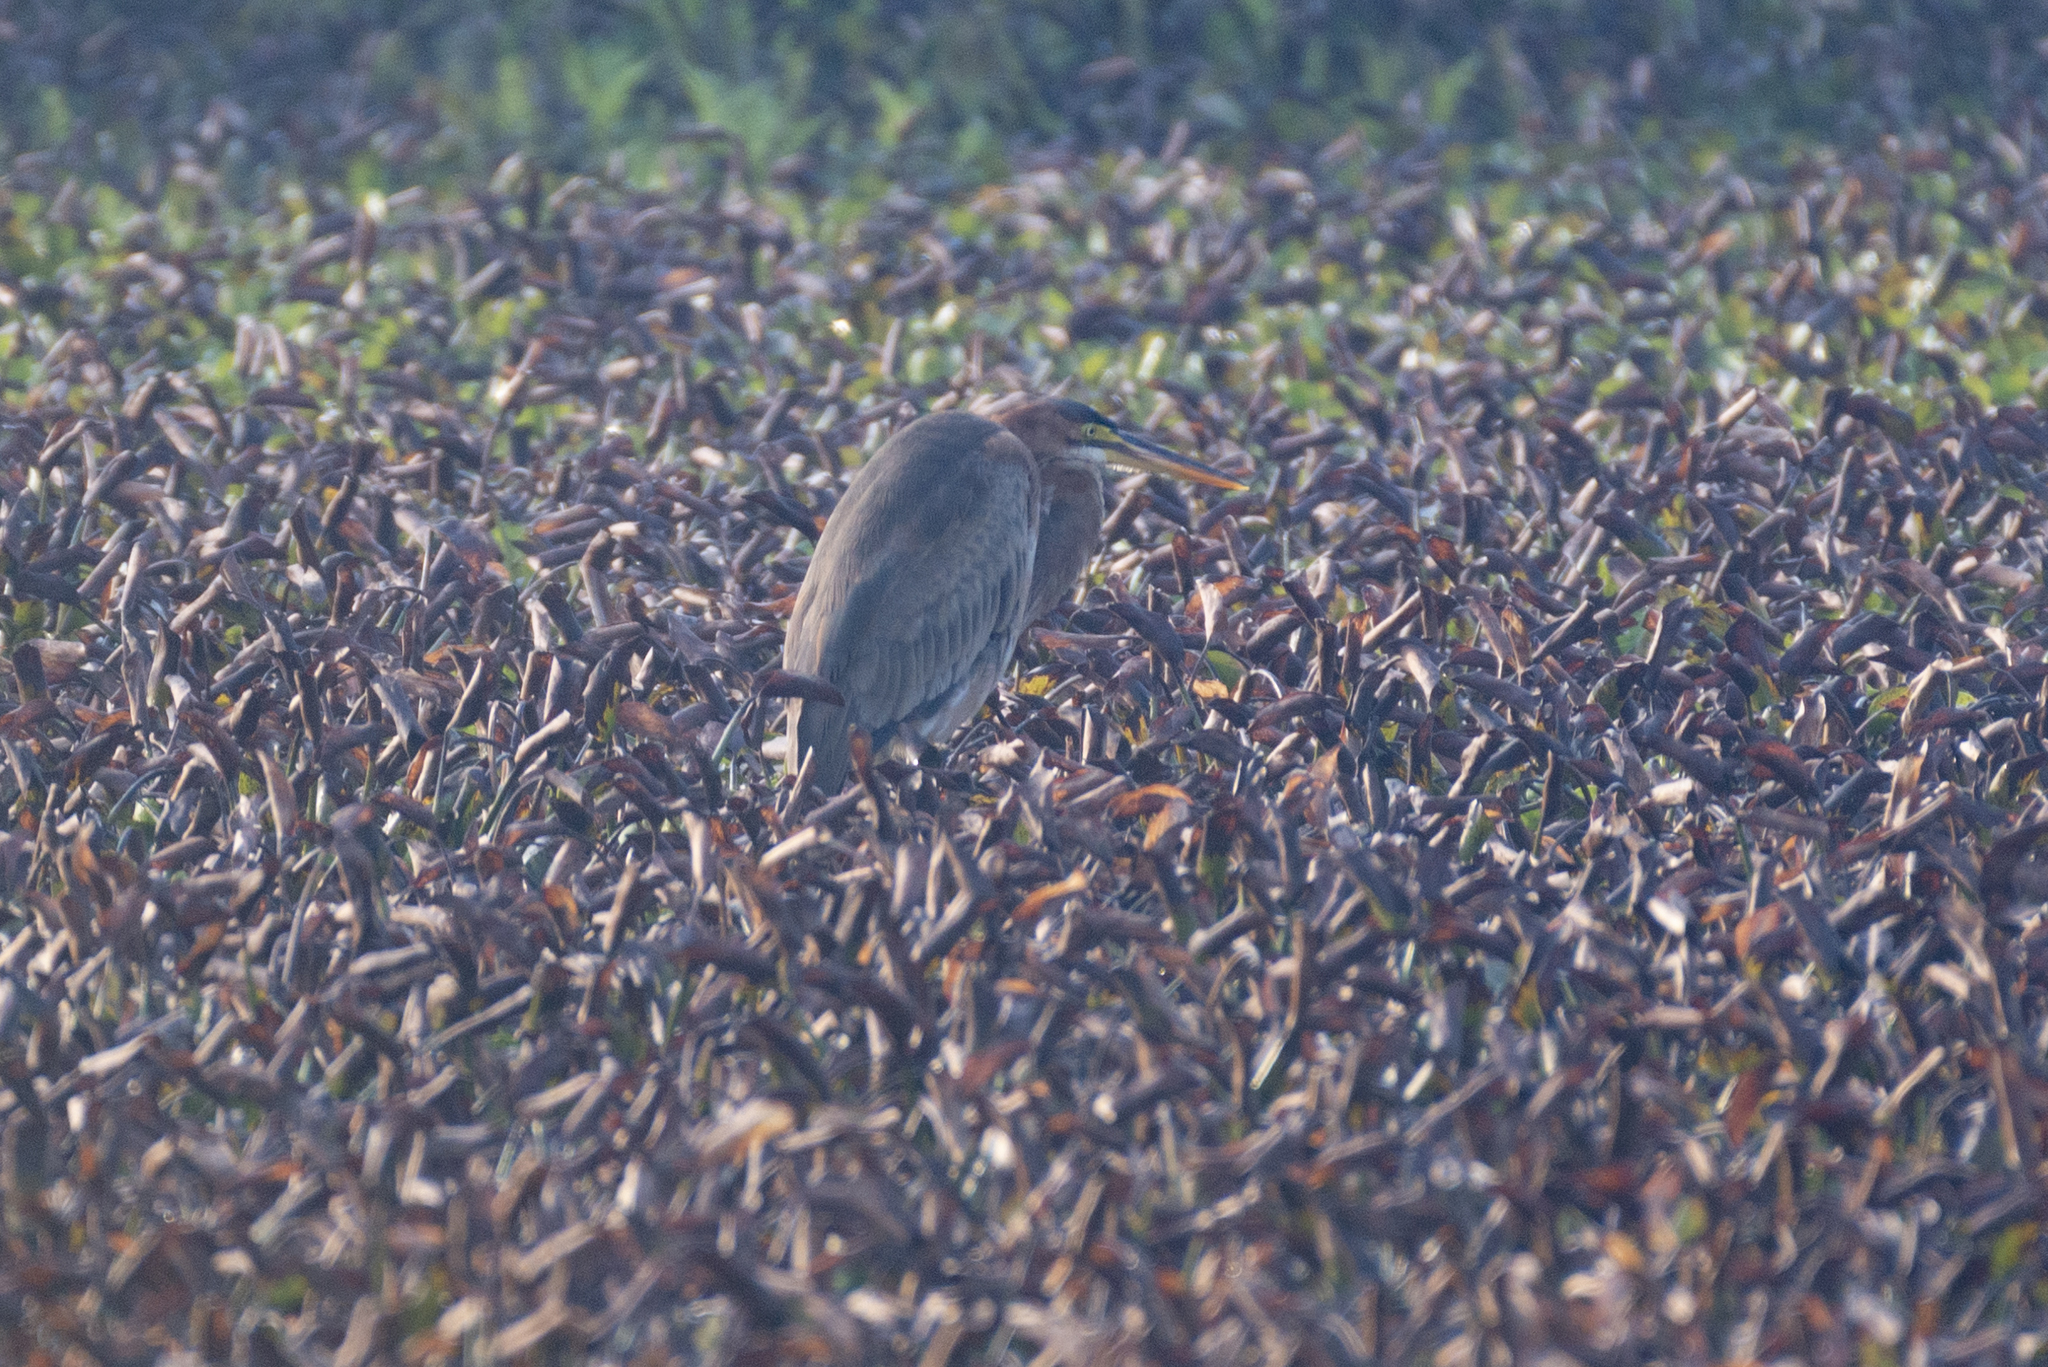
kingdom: Animalia
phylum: Chordata
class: Aves
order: Pelecaniformes
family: Ardeidae
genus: Ardea
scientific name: Ardea purpurea
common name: Purple heron
